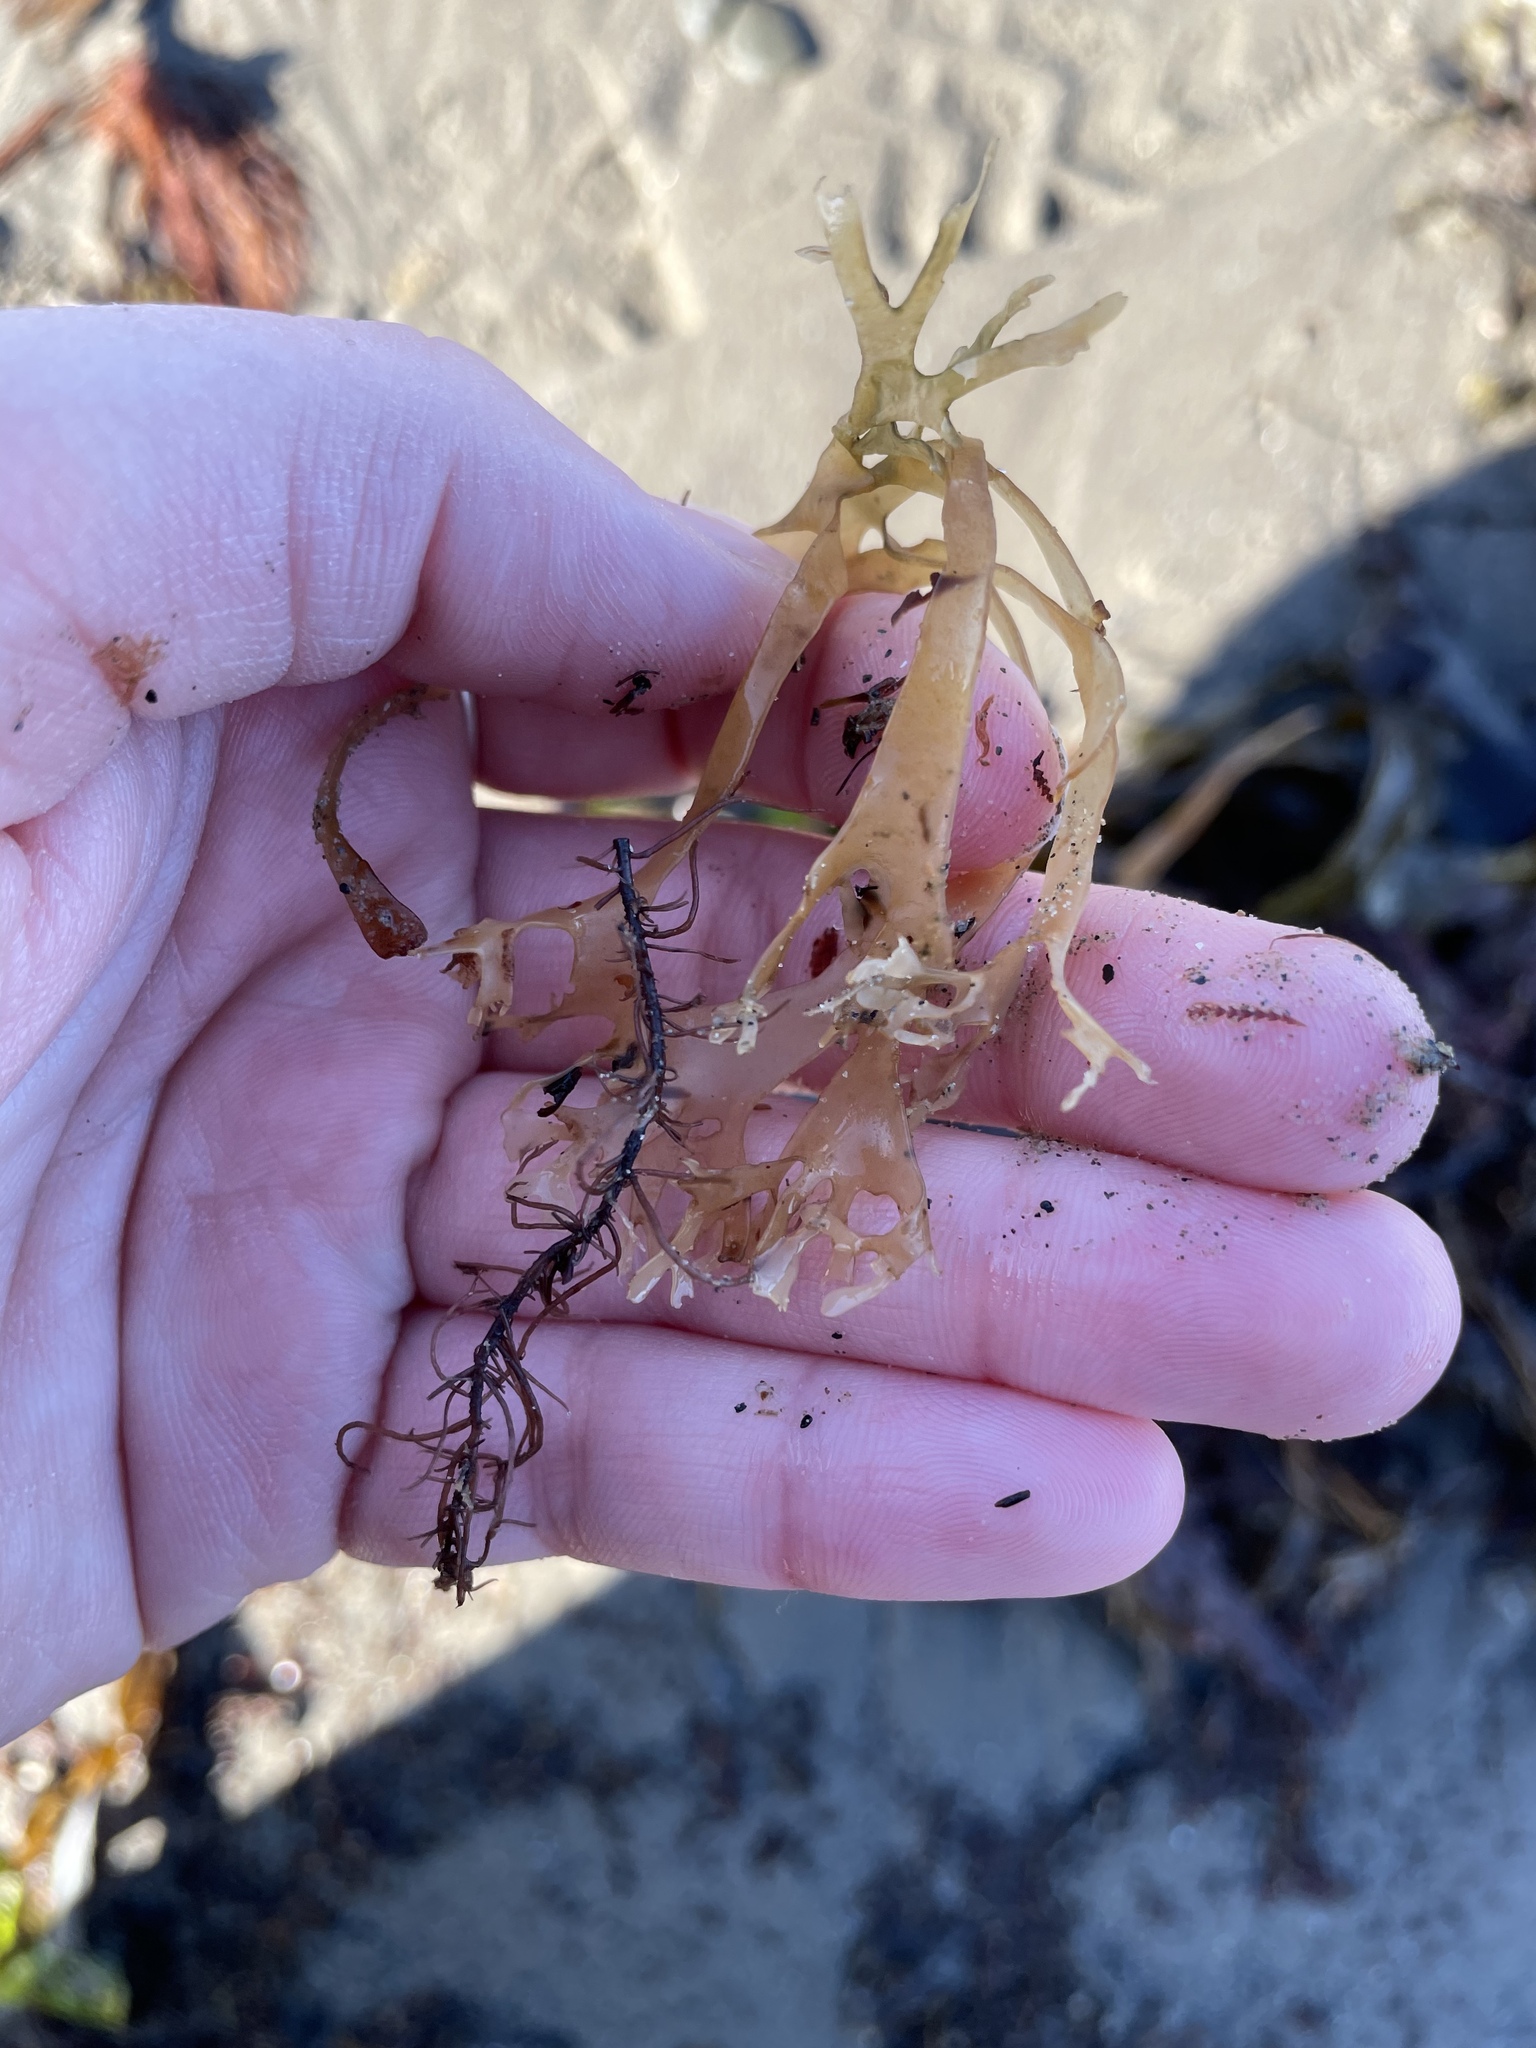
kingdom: Plantae
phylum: Rhodophyta
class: Florideophyceae
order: Gigartinales
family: Gigartinaceae
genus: Chondrus
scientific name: Chondrus crispus
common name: Carrageen
